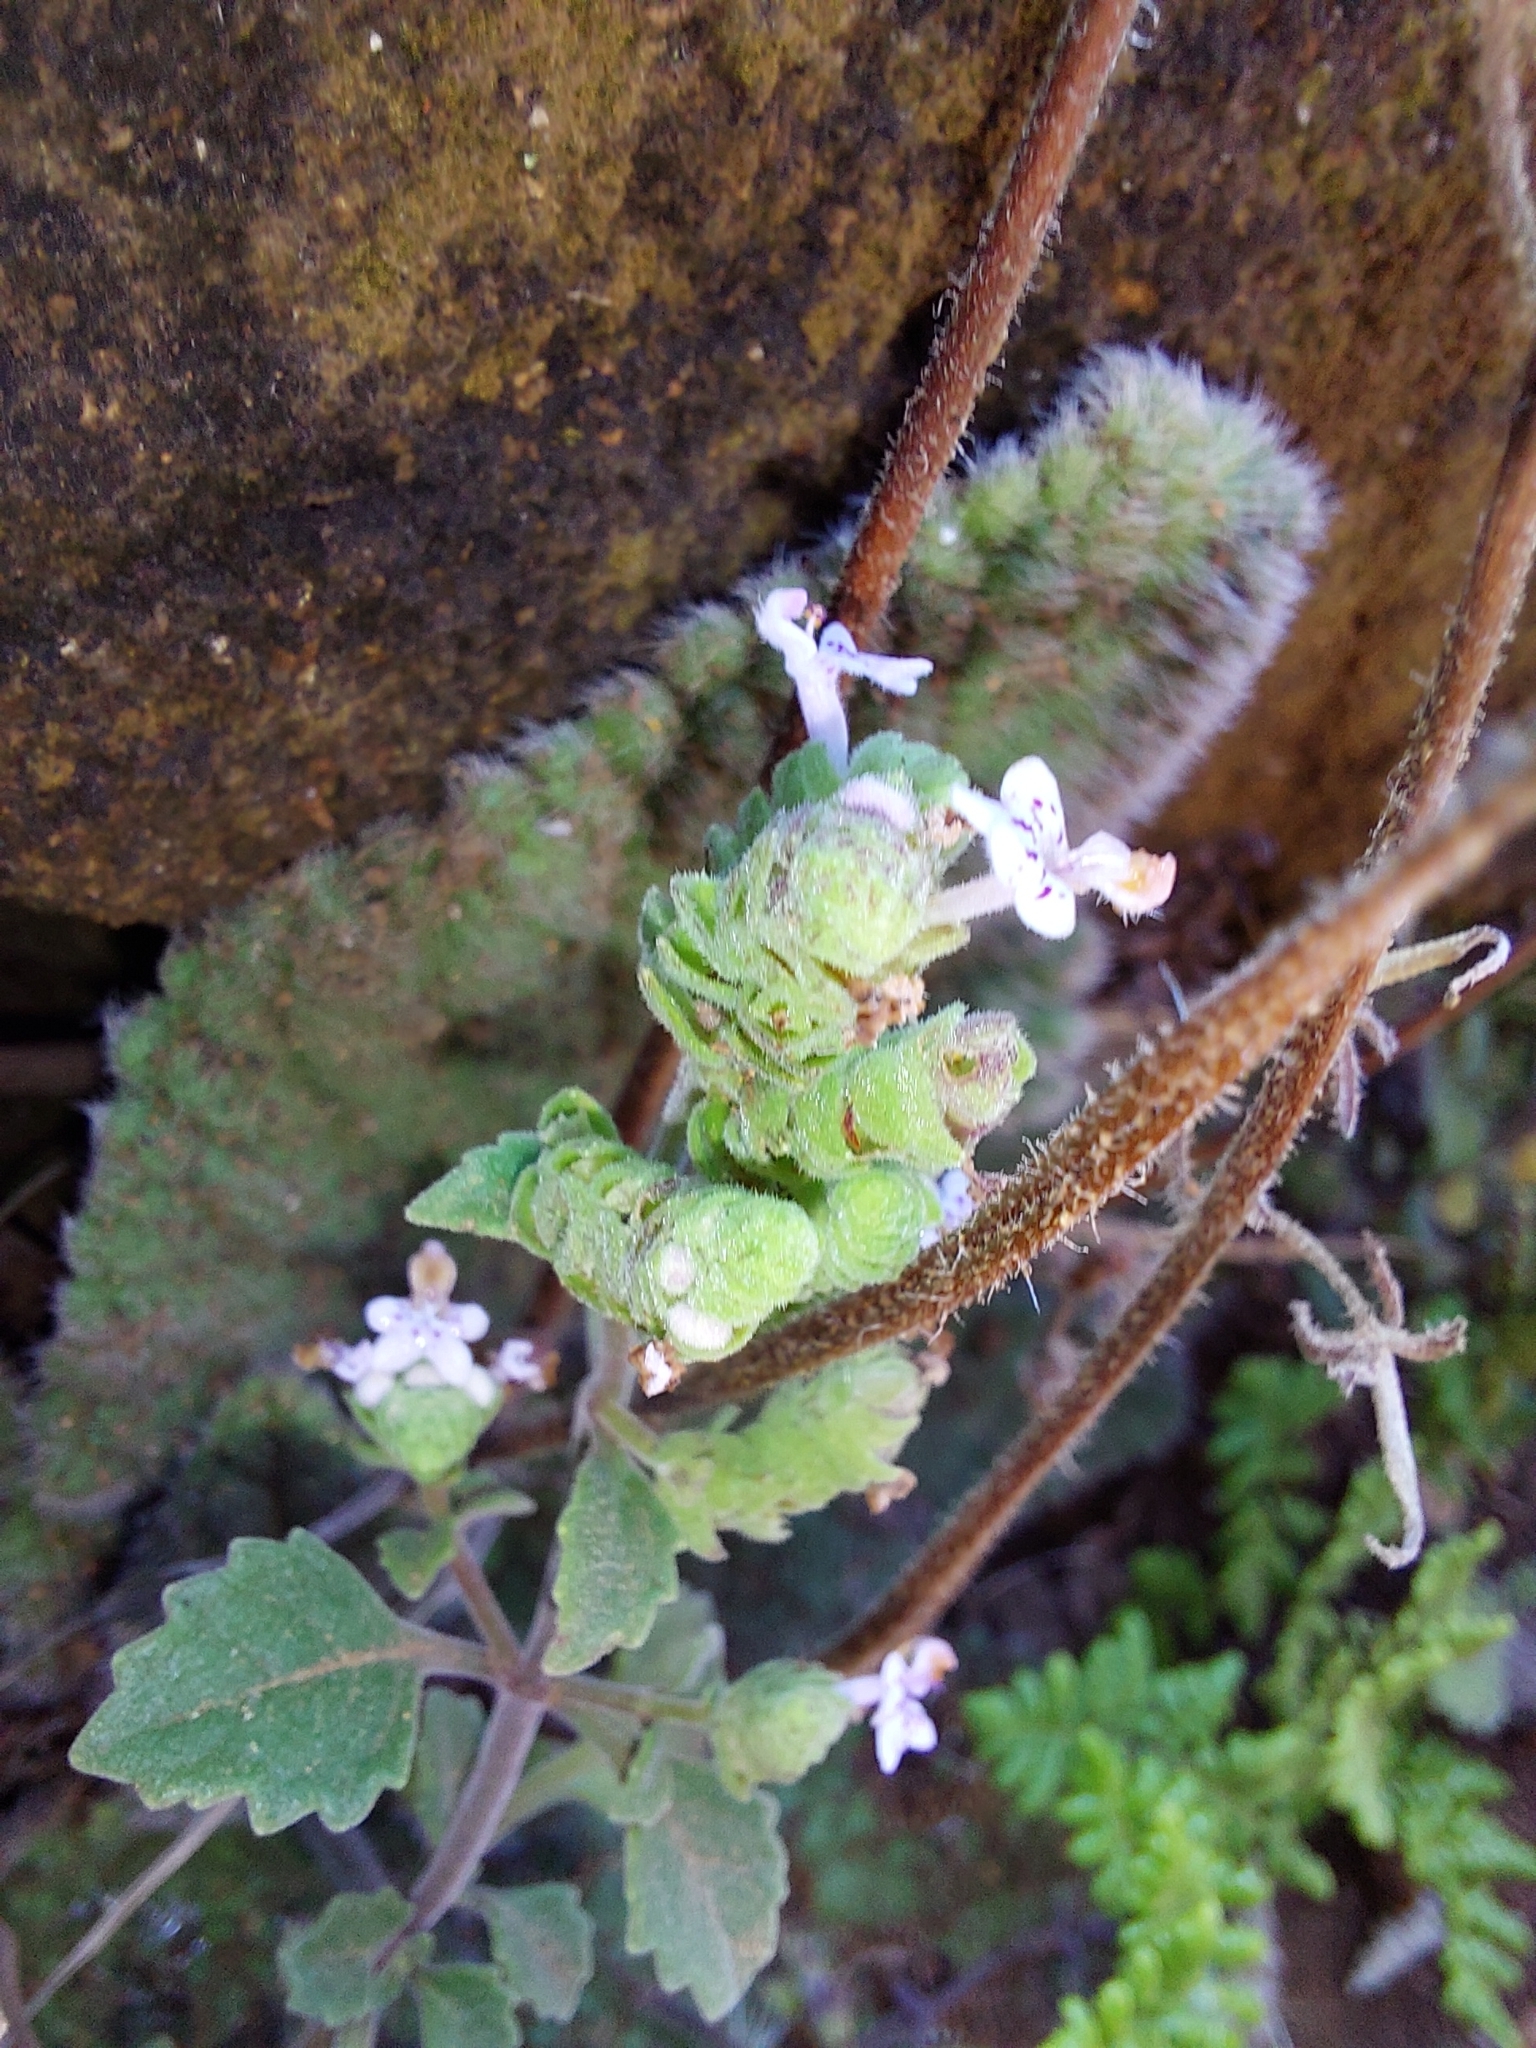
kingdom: Plantae
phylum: Tracheophyta
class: Magnoliopsida
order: Lamiales
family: Lamiaceae
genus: Aeollanthus
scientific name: Aeollanthus buchnerianus
